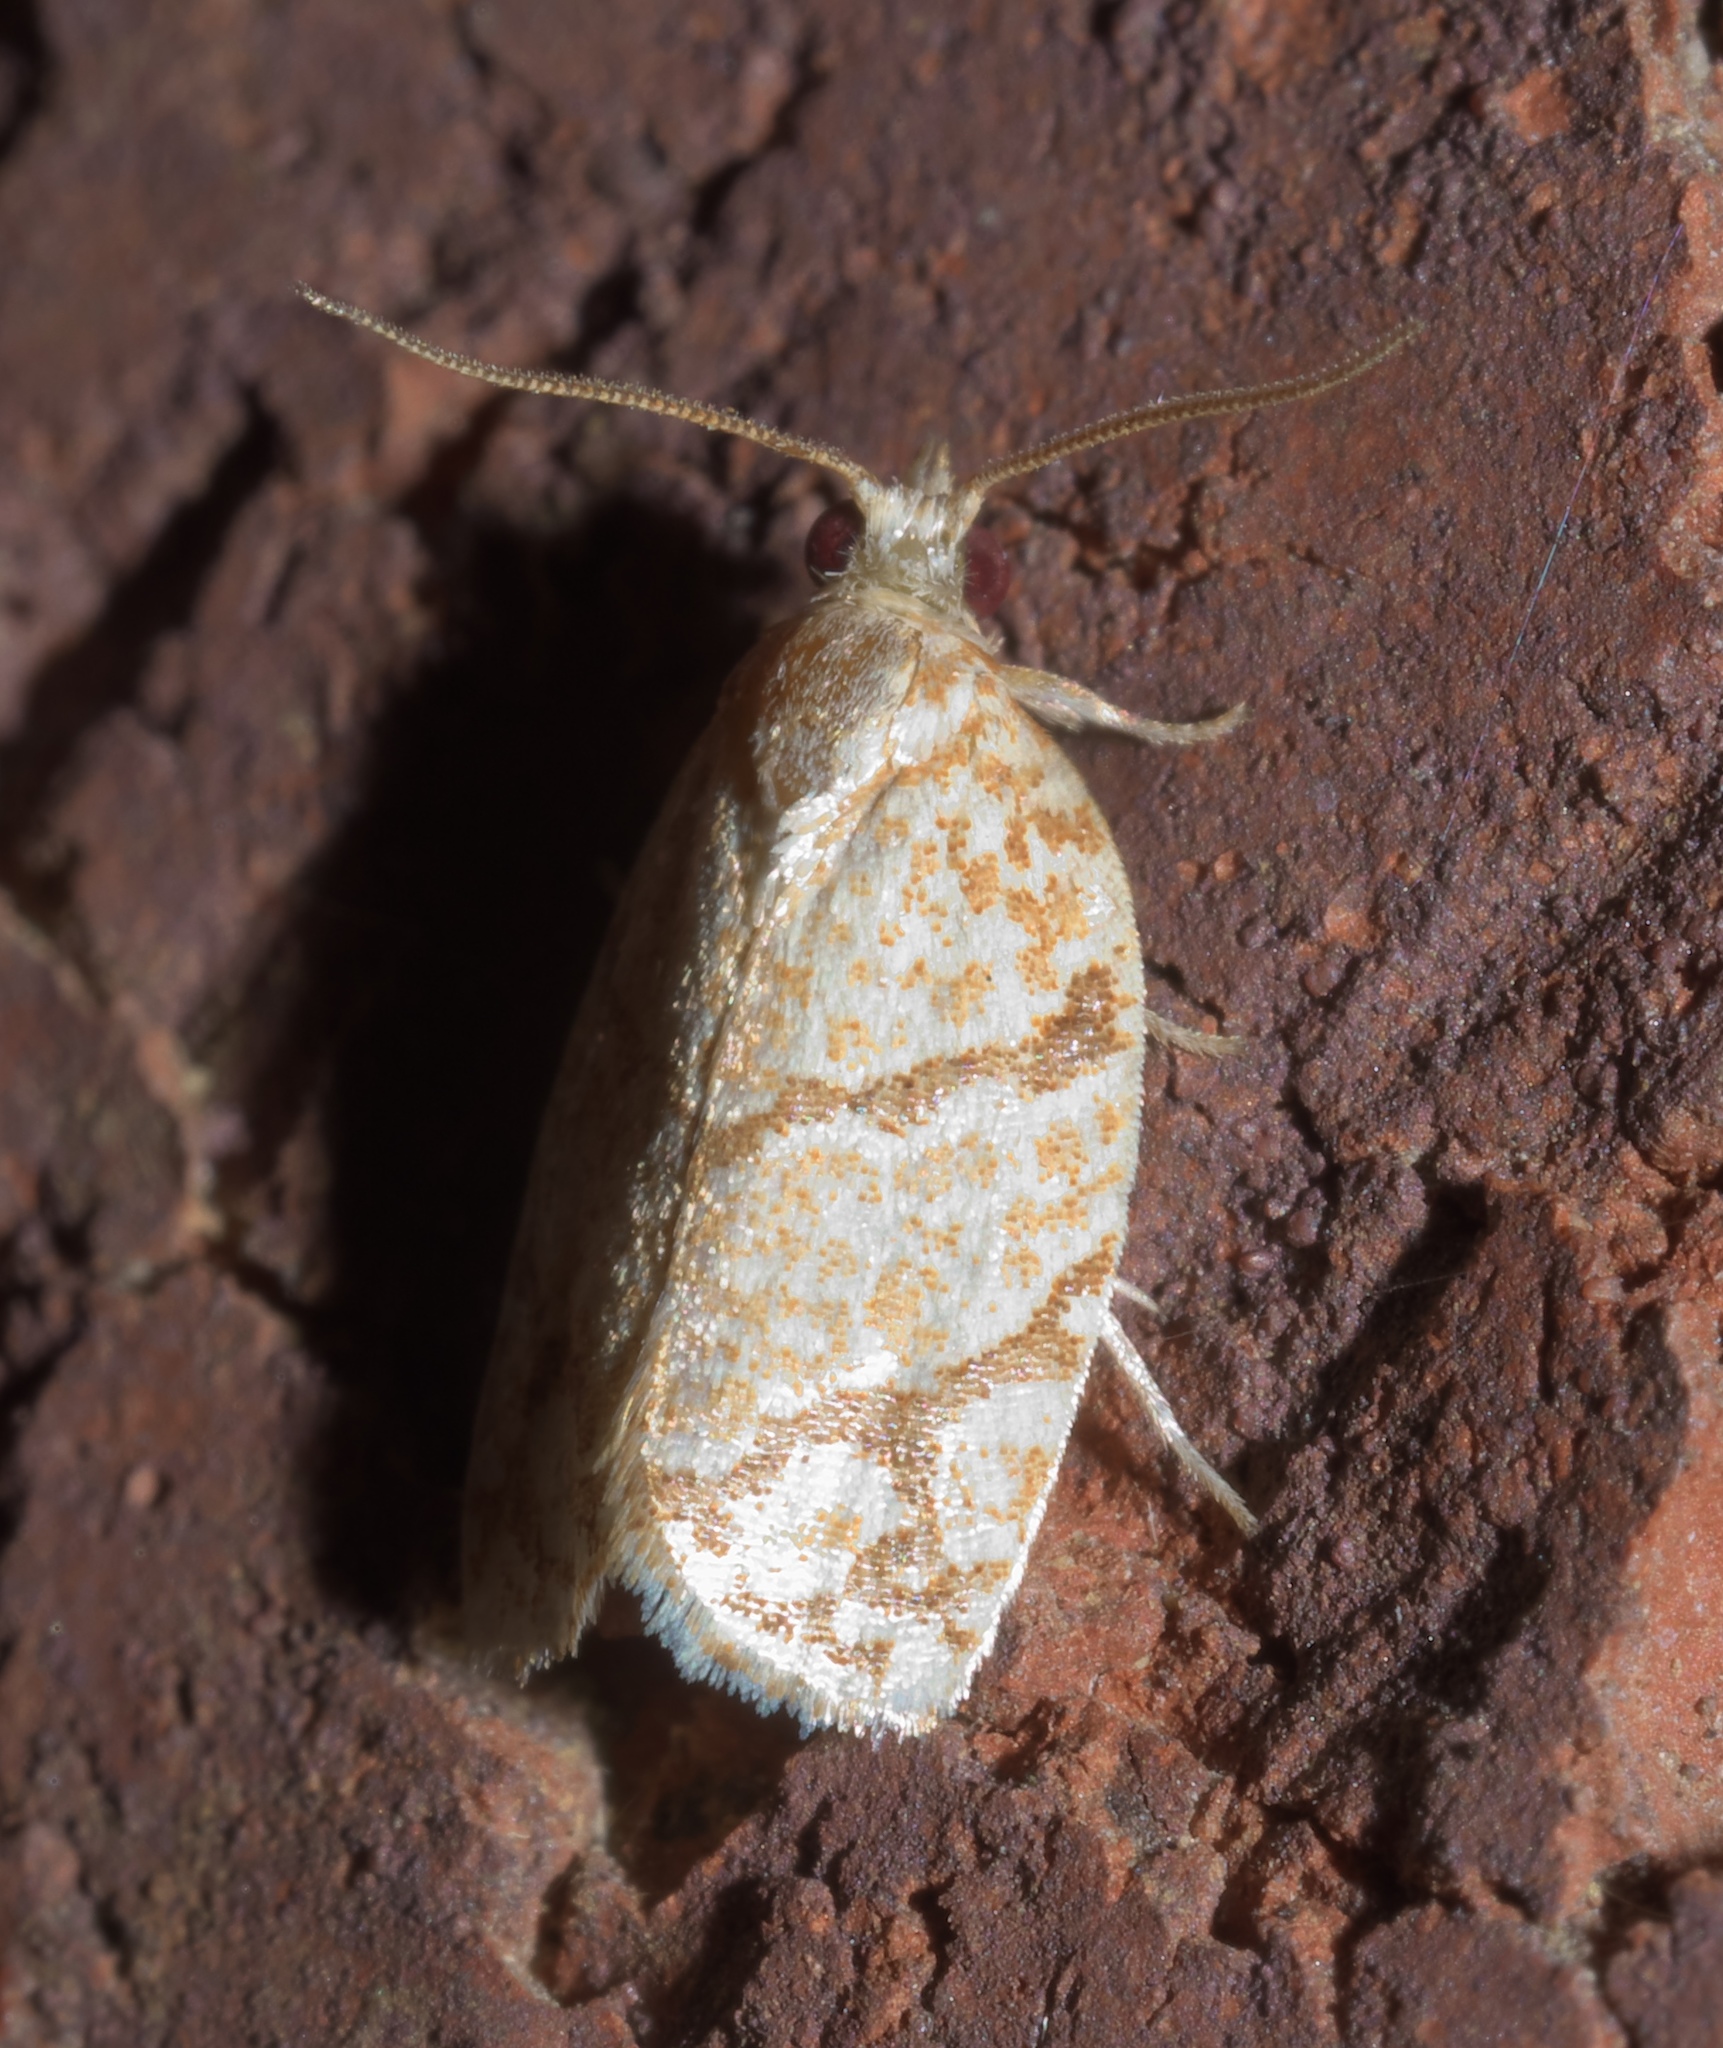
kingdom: Animalia
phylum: Arthropoda
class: Insecta
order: Lepidoptera
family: Tortricidae
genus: Argyrotaenia
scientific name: Argyrotaenia quercifoliana
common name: Yellow-winged oak leafroller moth
